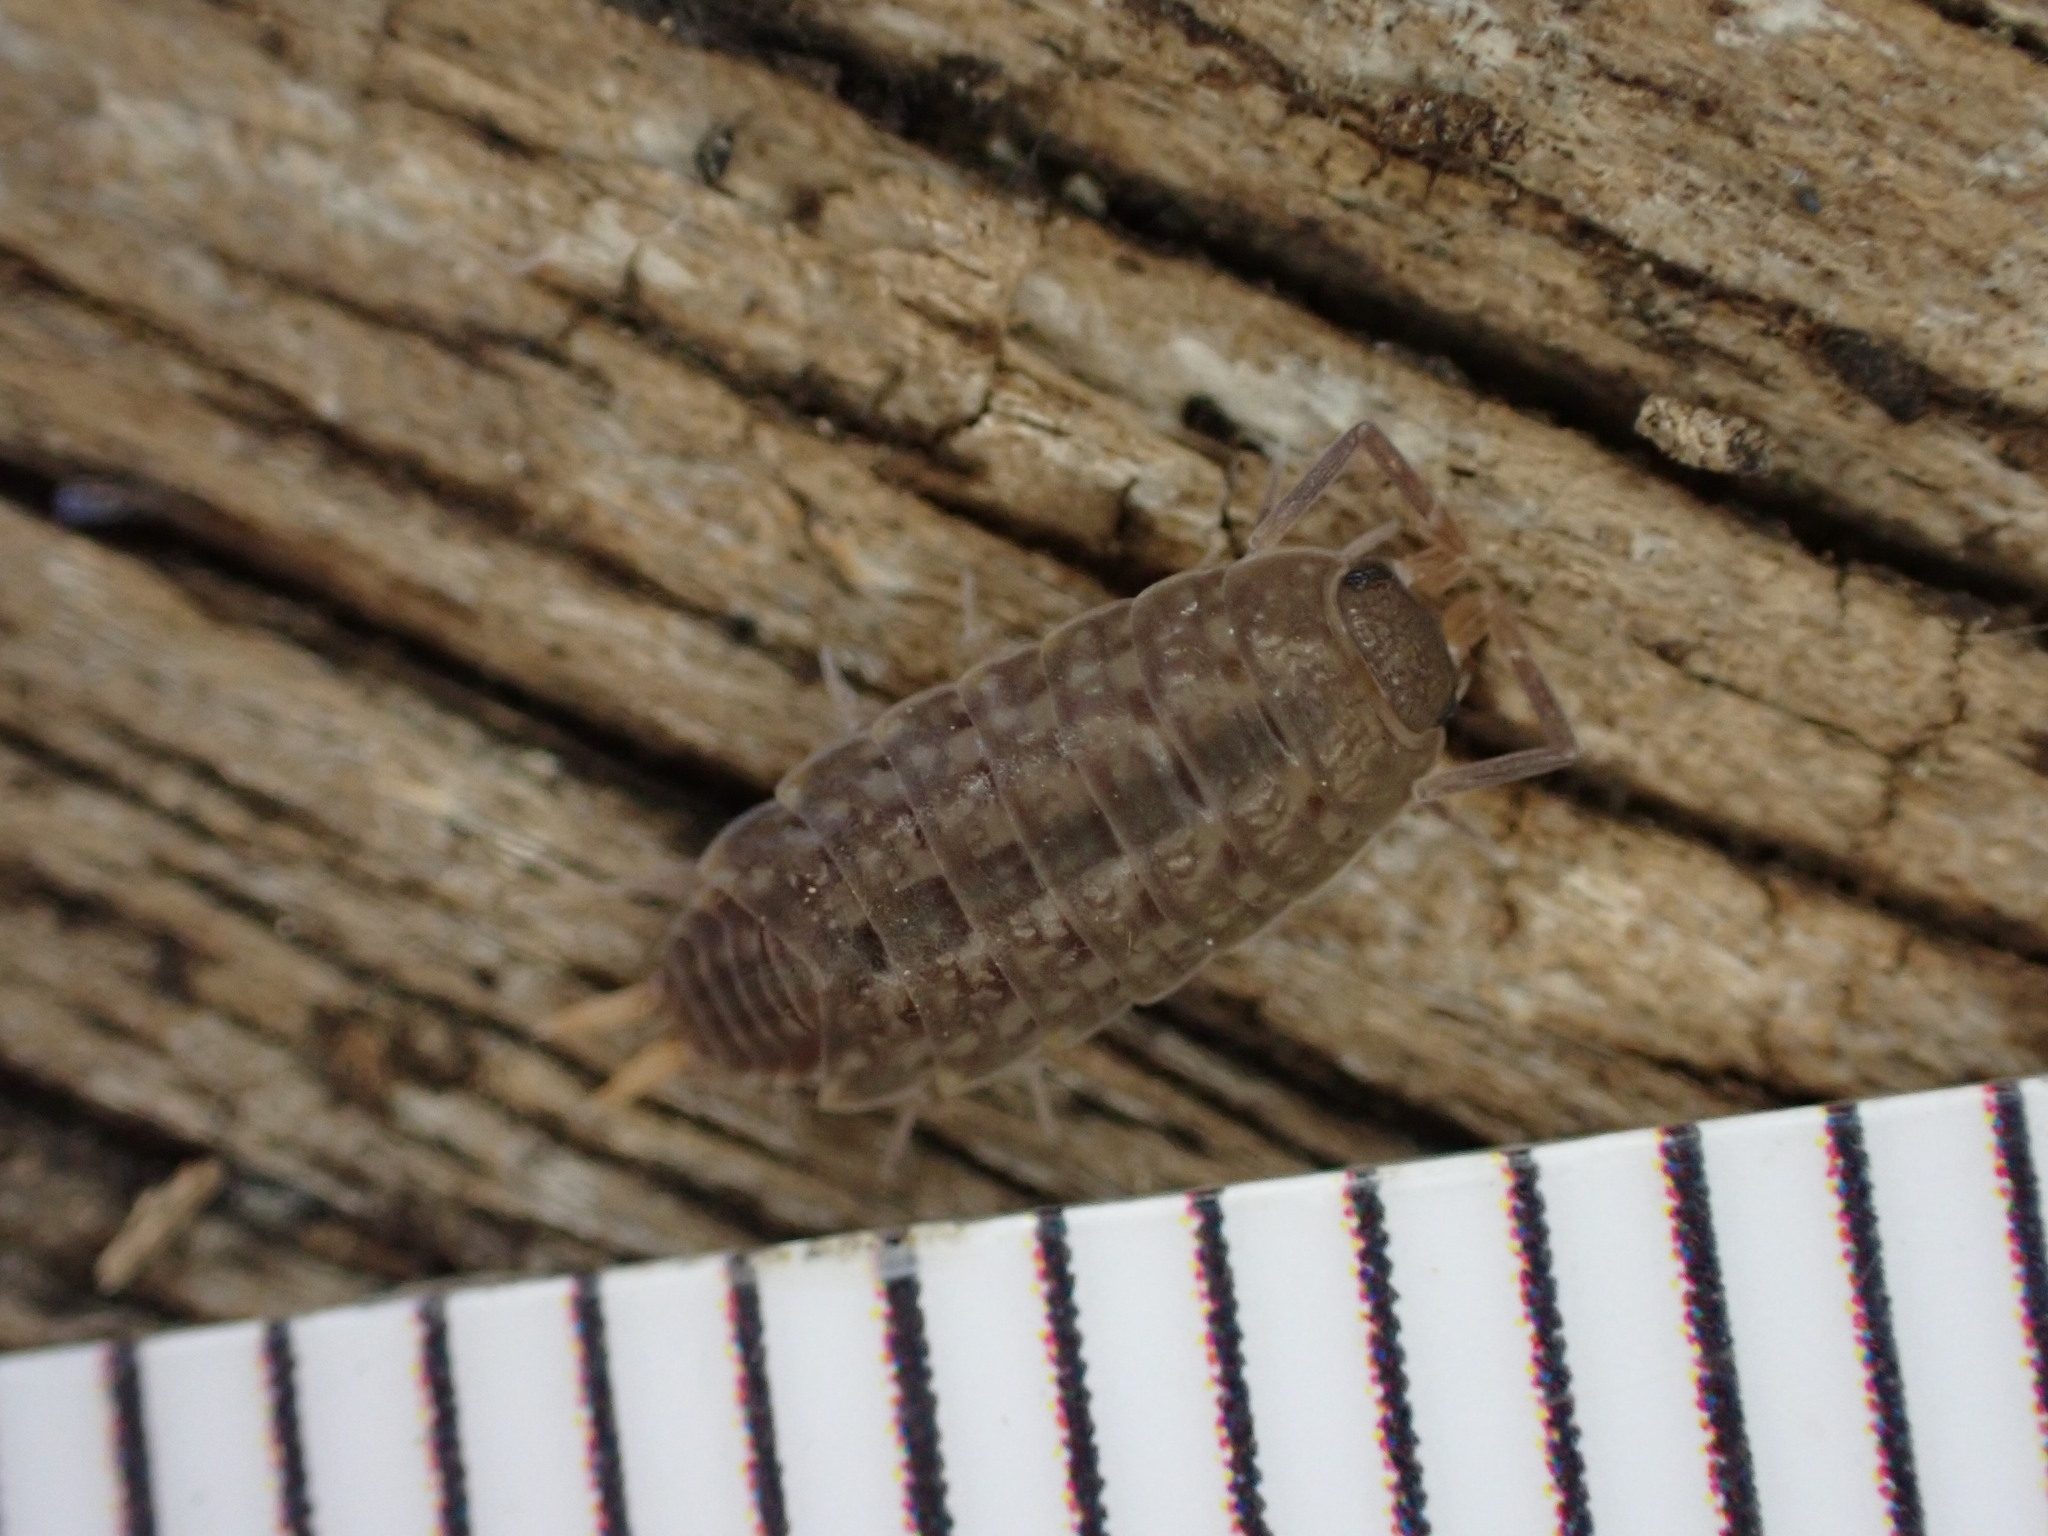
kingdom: Animalia
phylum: Arthropoda
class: Malacostraca
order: Isopoda
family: Agnaridae
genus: Orthometopon
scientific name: Orthometopon planum
